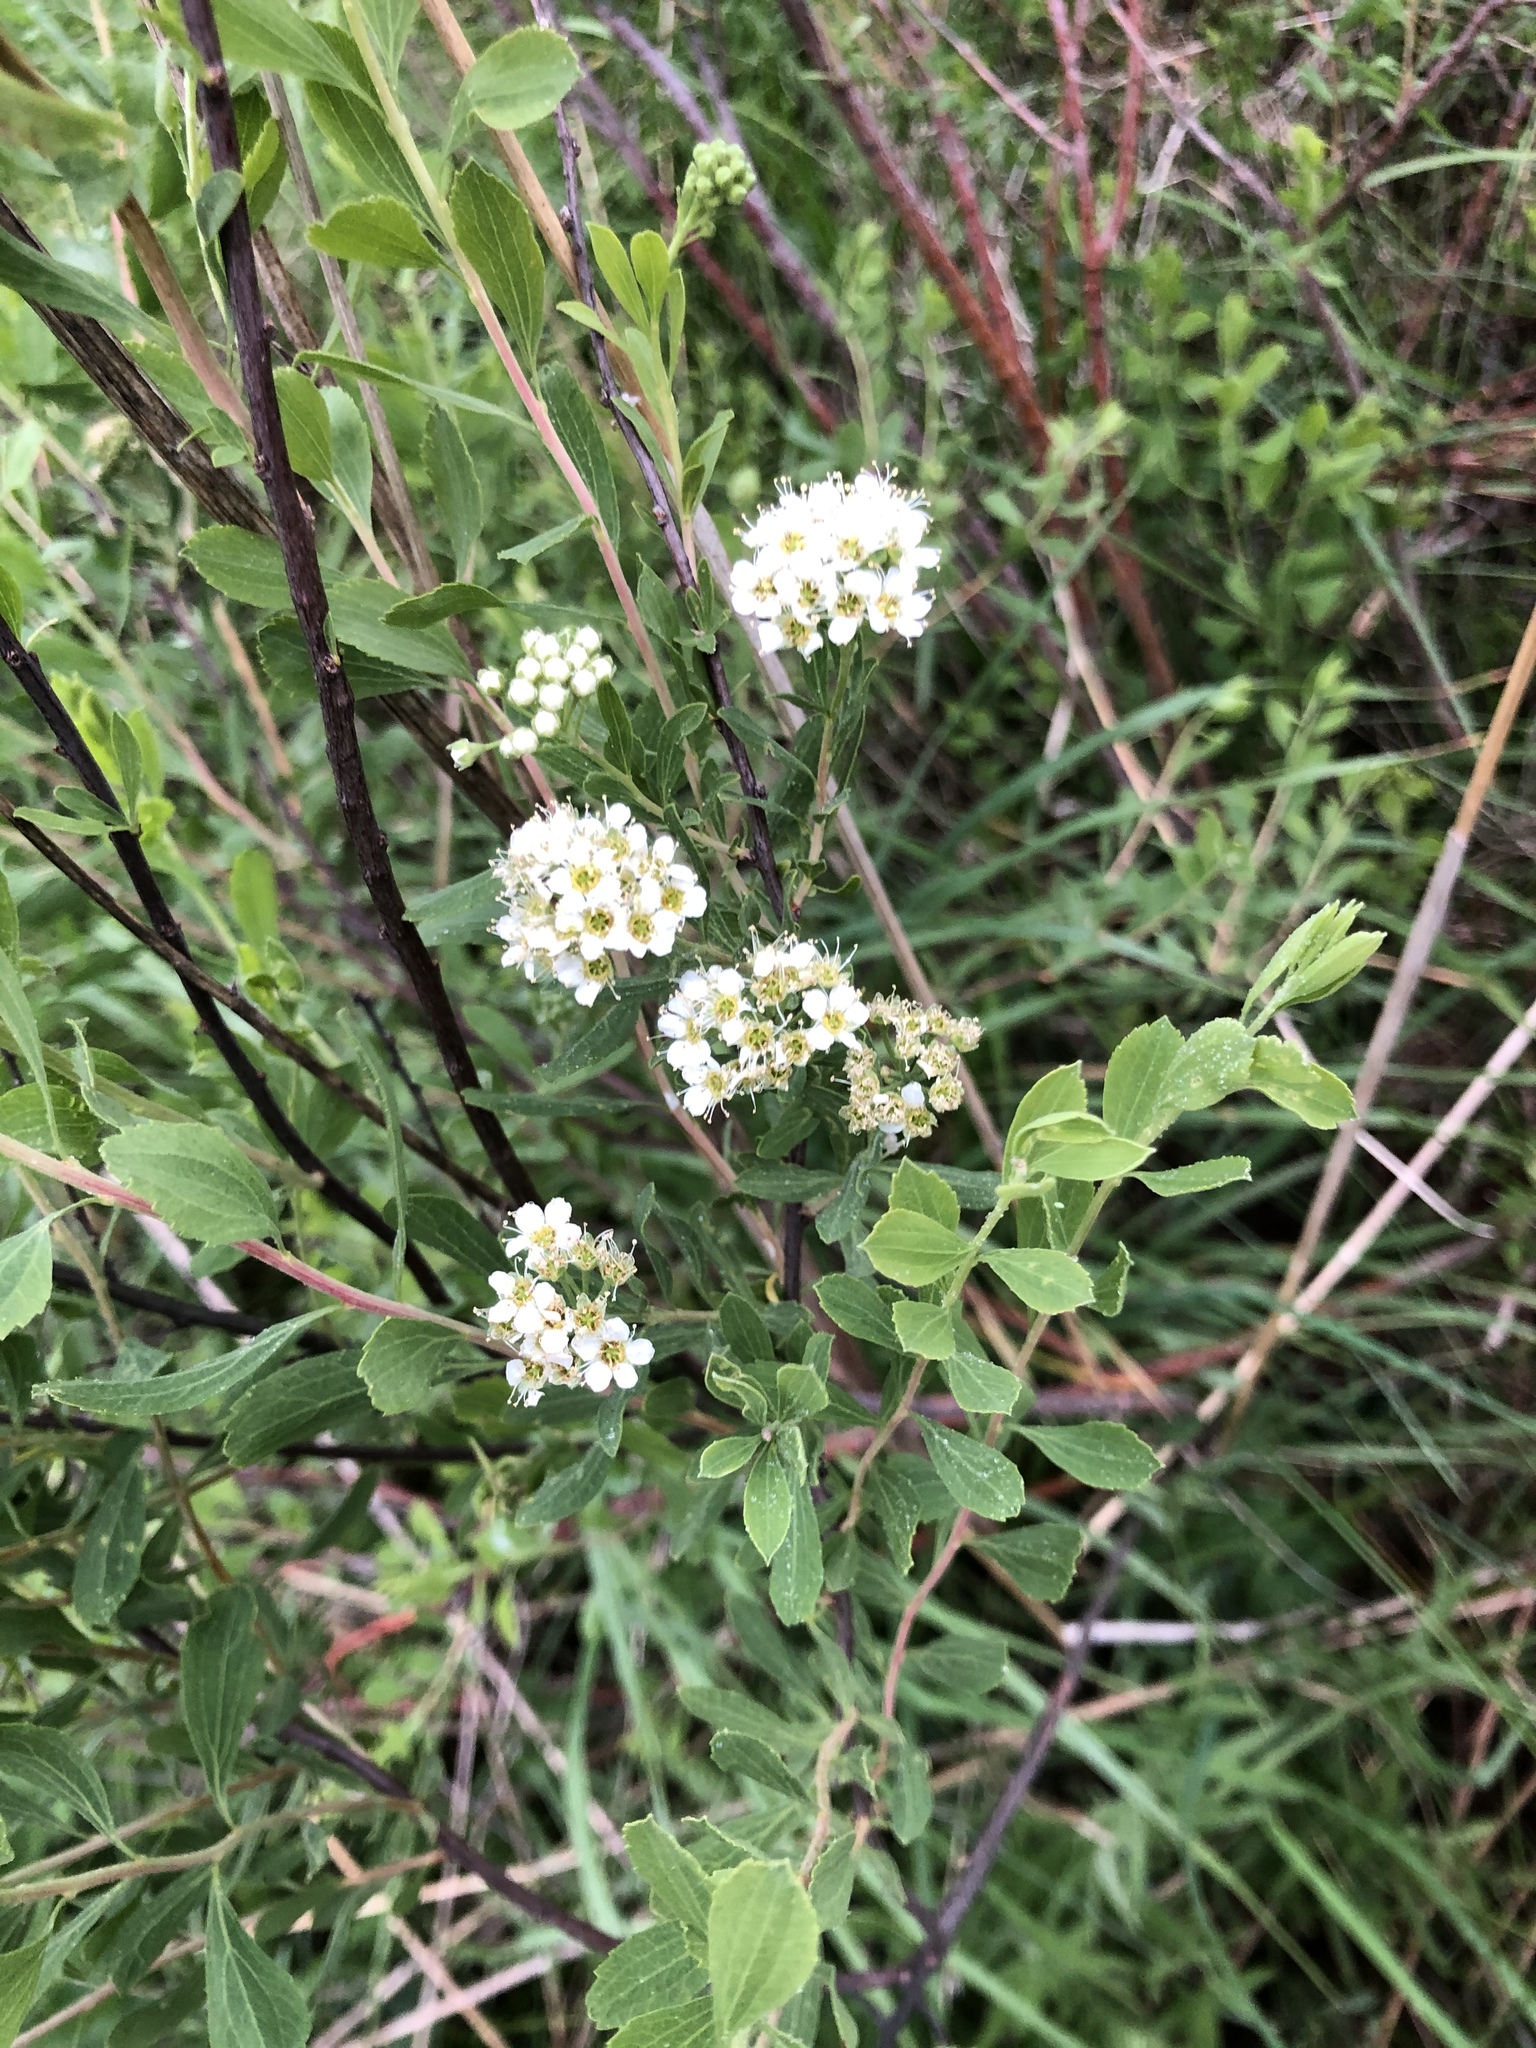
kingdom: Plantae
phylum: Tracheophyta
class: Magnoliopsida
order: Rosales
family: Rosaceae
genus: Spiraea
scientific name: Spiraea crenata
